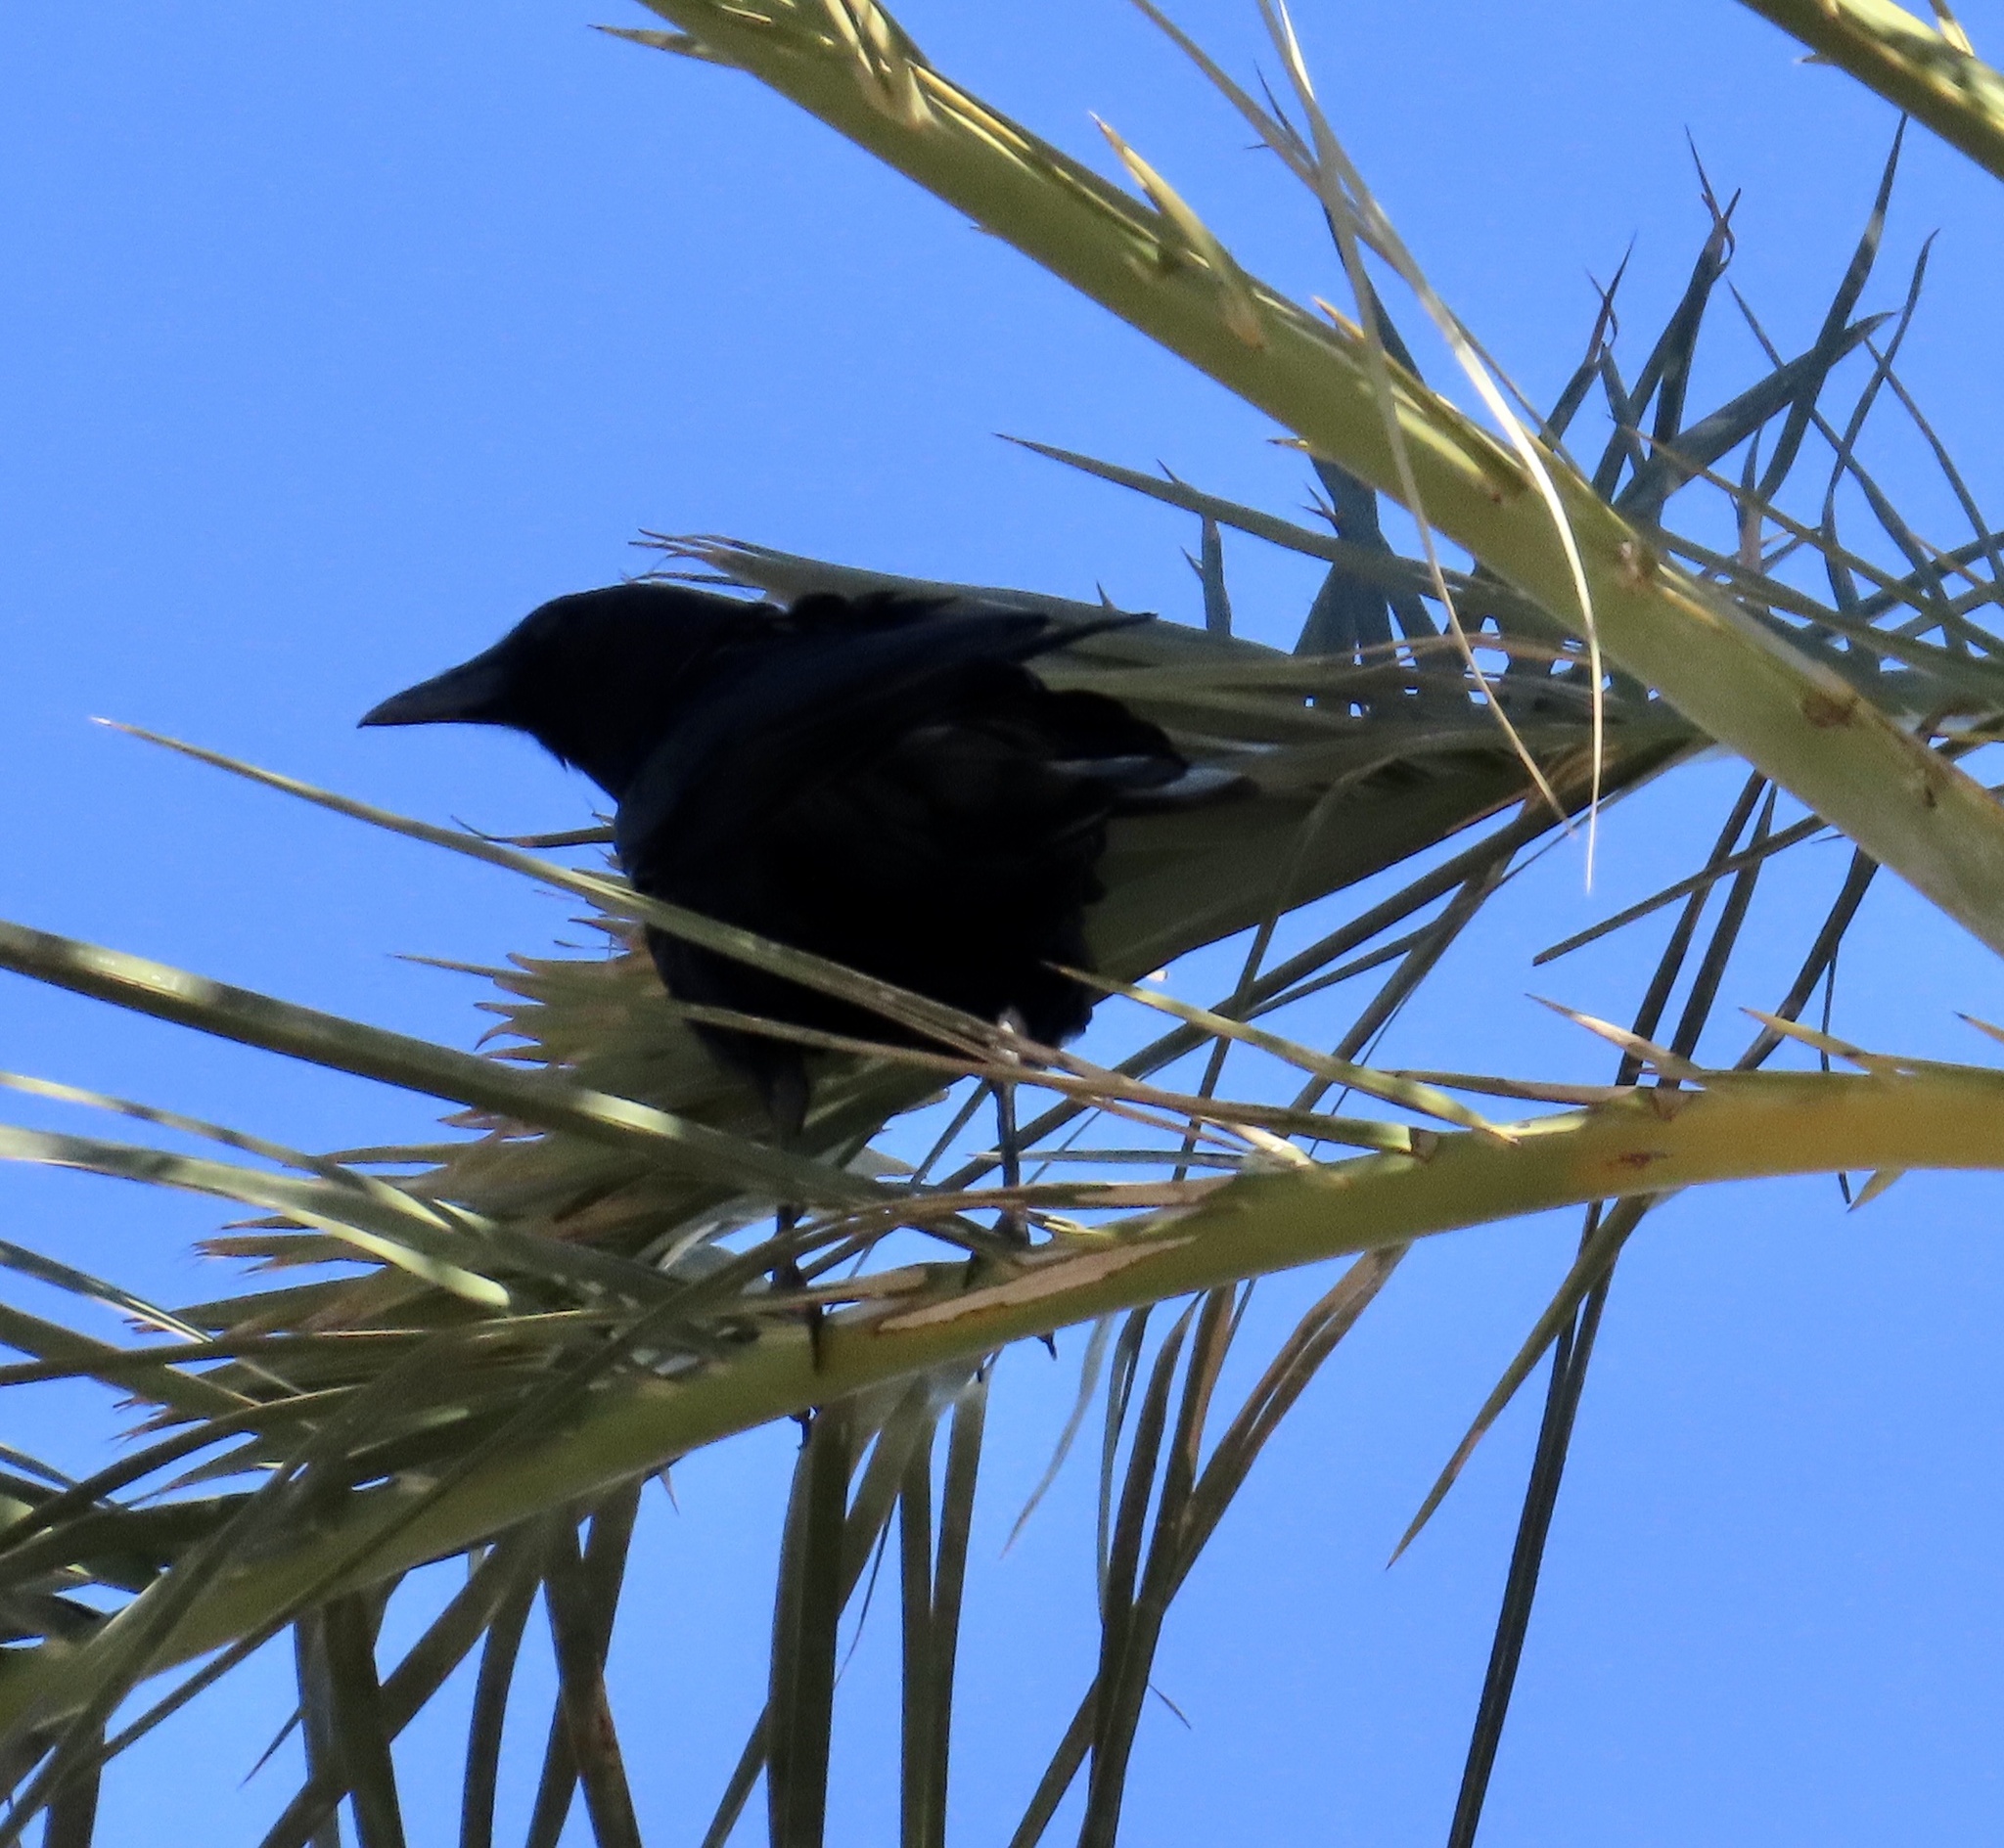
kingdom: Animalia
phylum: Chordata
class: Aves
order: Passeriformes
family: Corvidae
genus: Corvus
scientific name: Corvus brachyrhynchos
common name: American crow
